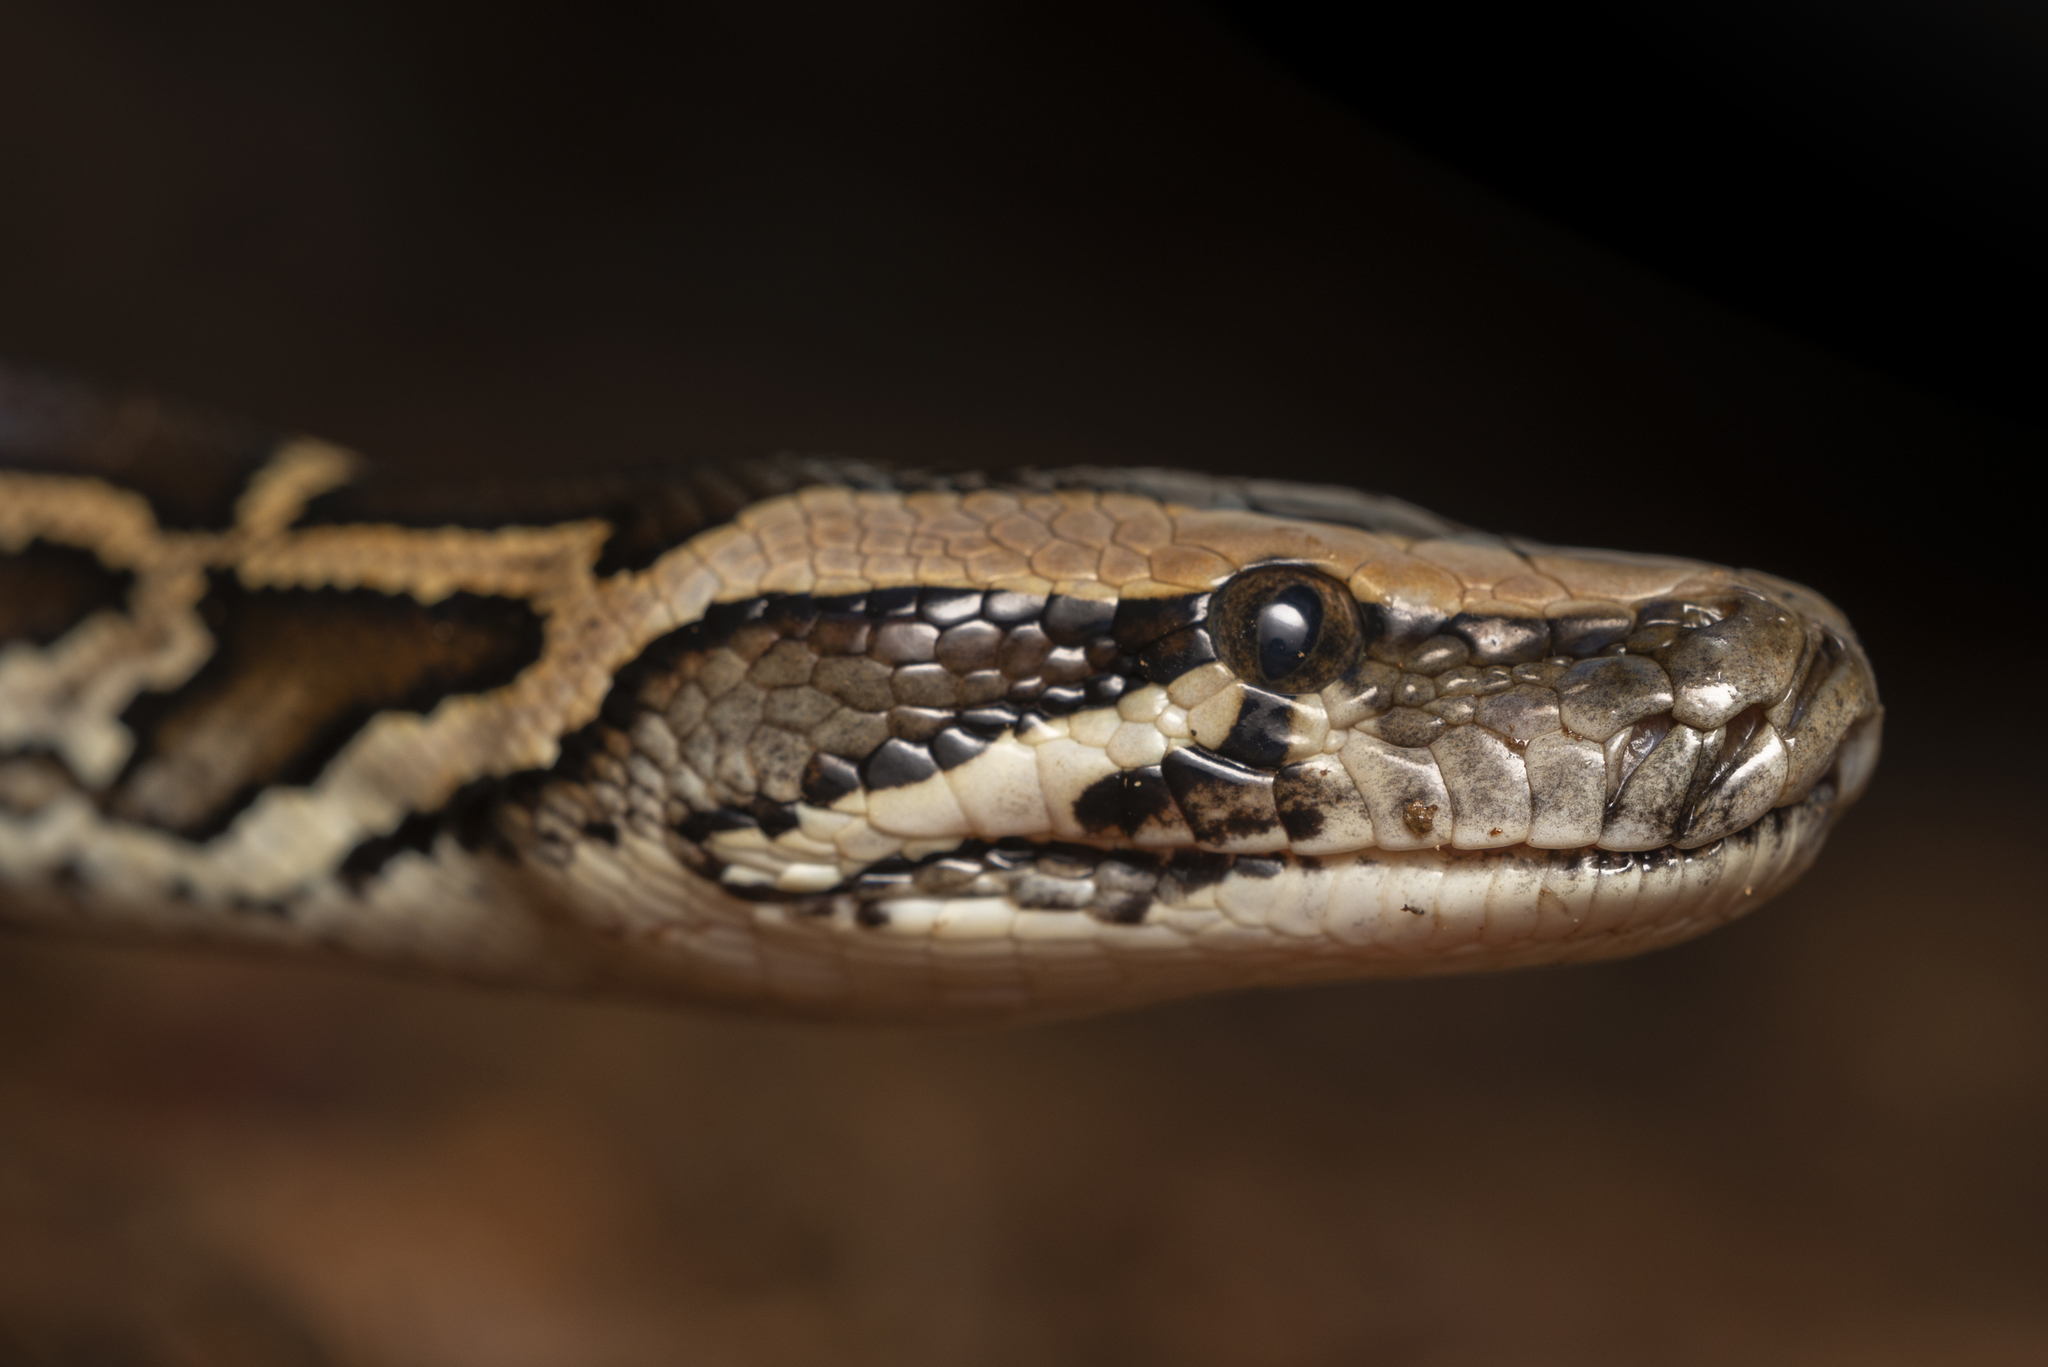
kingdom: Animalia
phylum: Chordata
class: Squamata
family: Pythonidae
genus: Python
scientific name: Python bivittatus
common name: Burmese python
